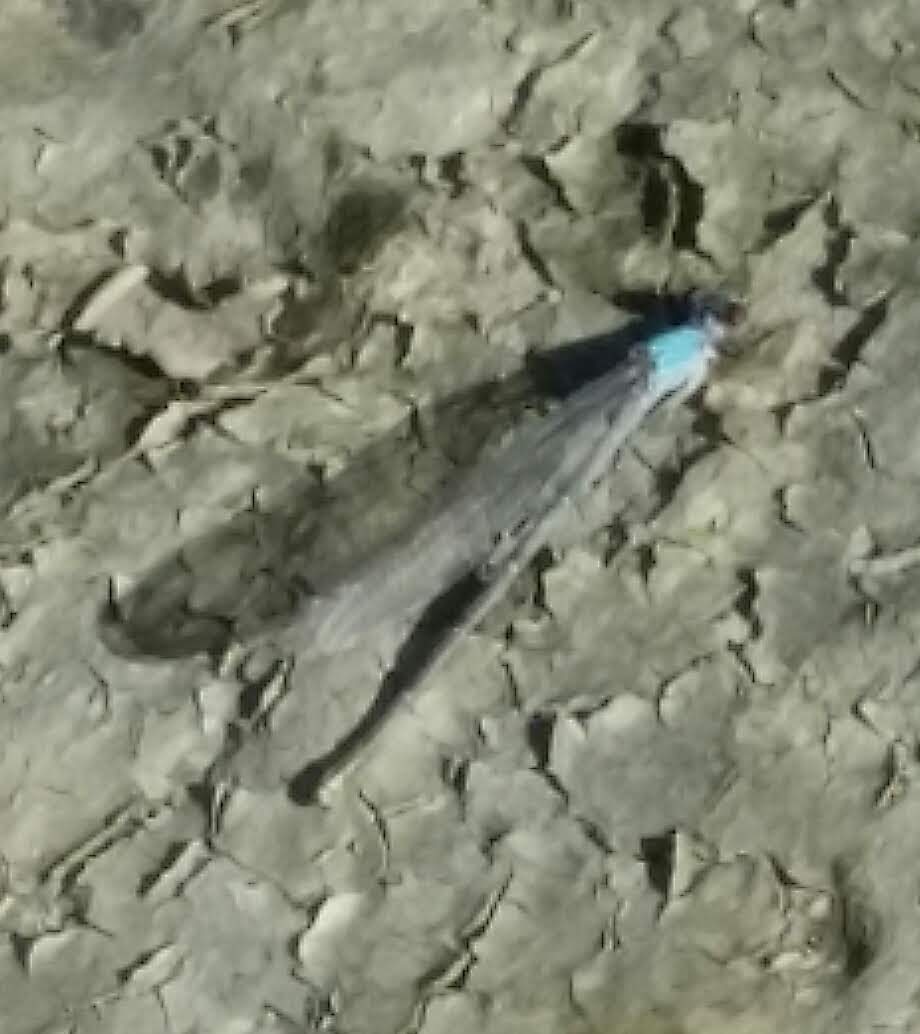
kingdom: Animalia
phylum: Arthropoda
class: Insecta
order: Odonata
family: Coenagrionidae
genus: Argia
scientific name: Argia
